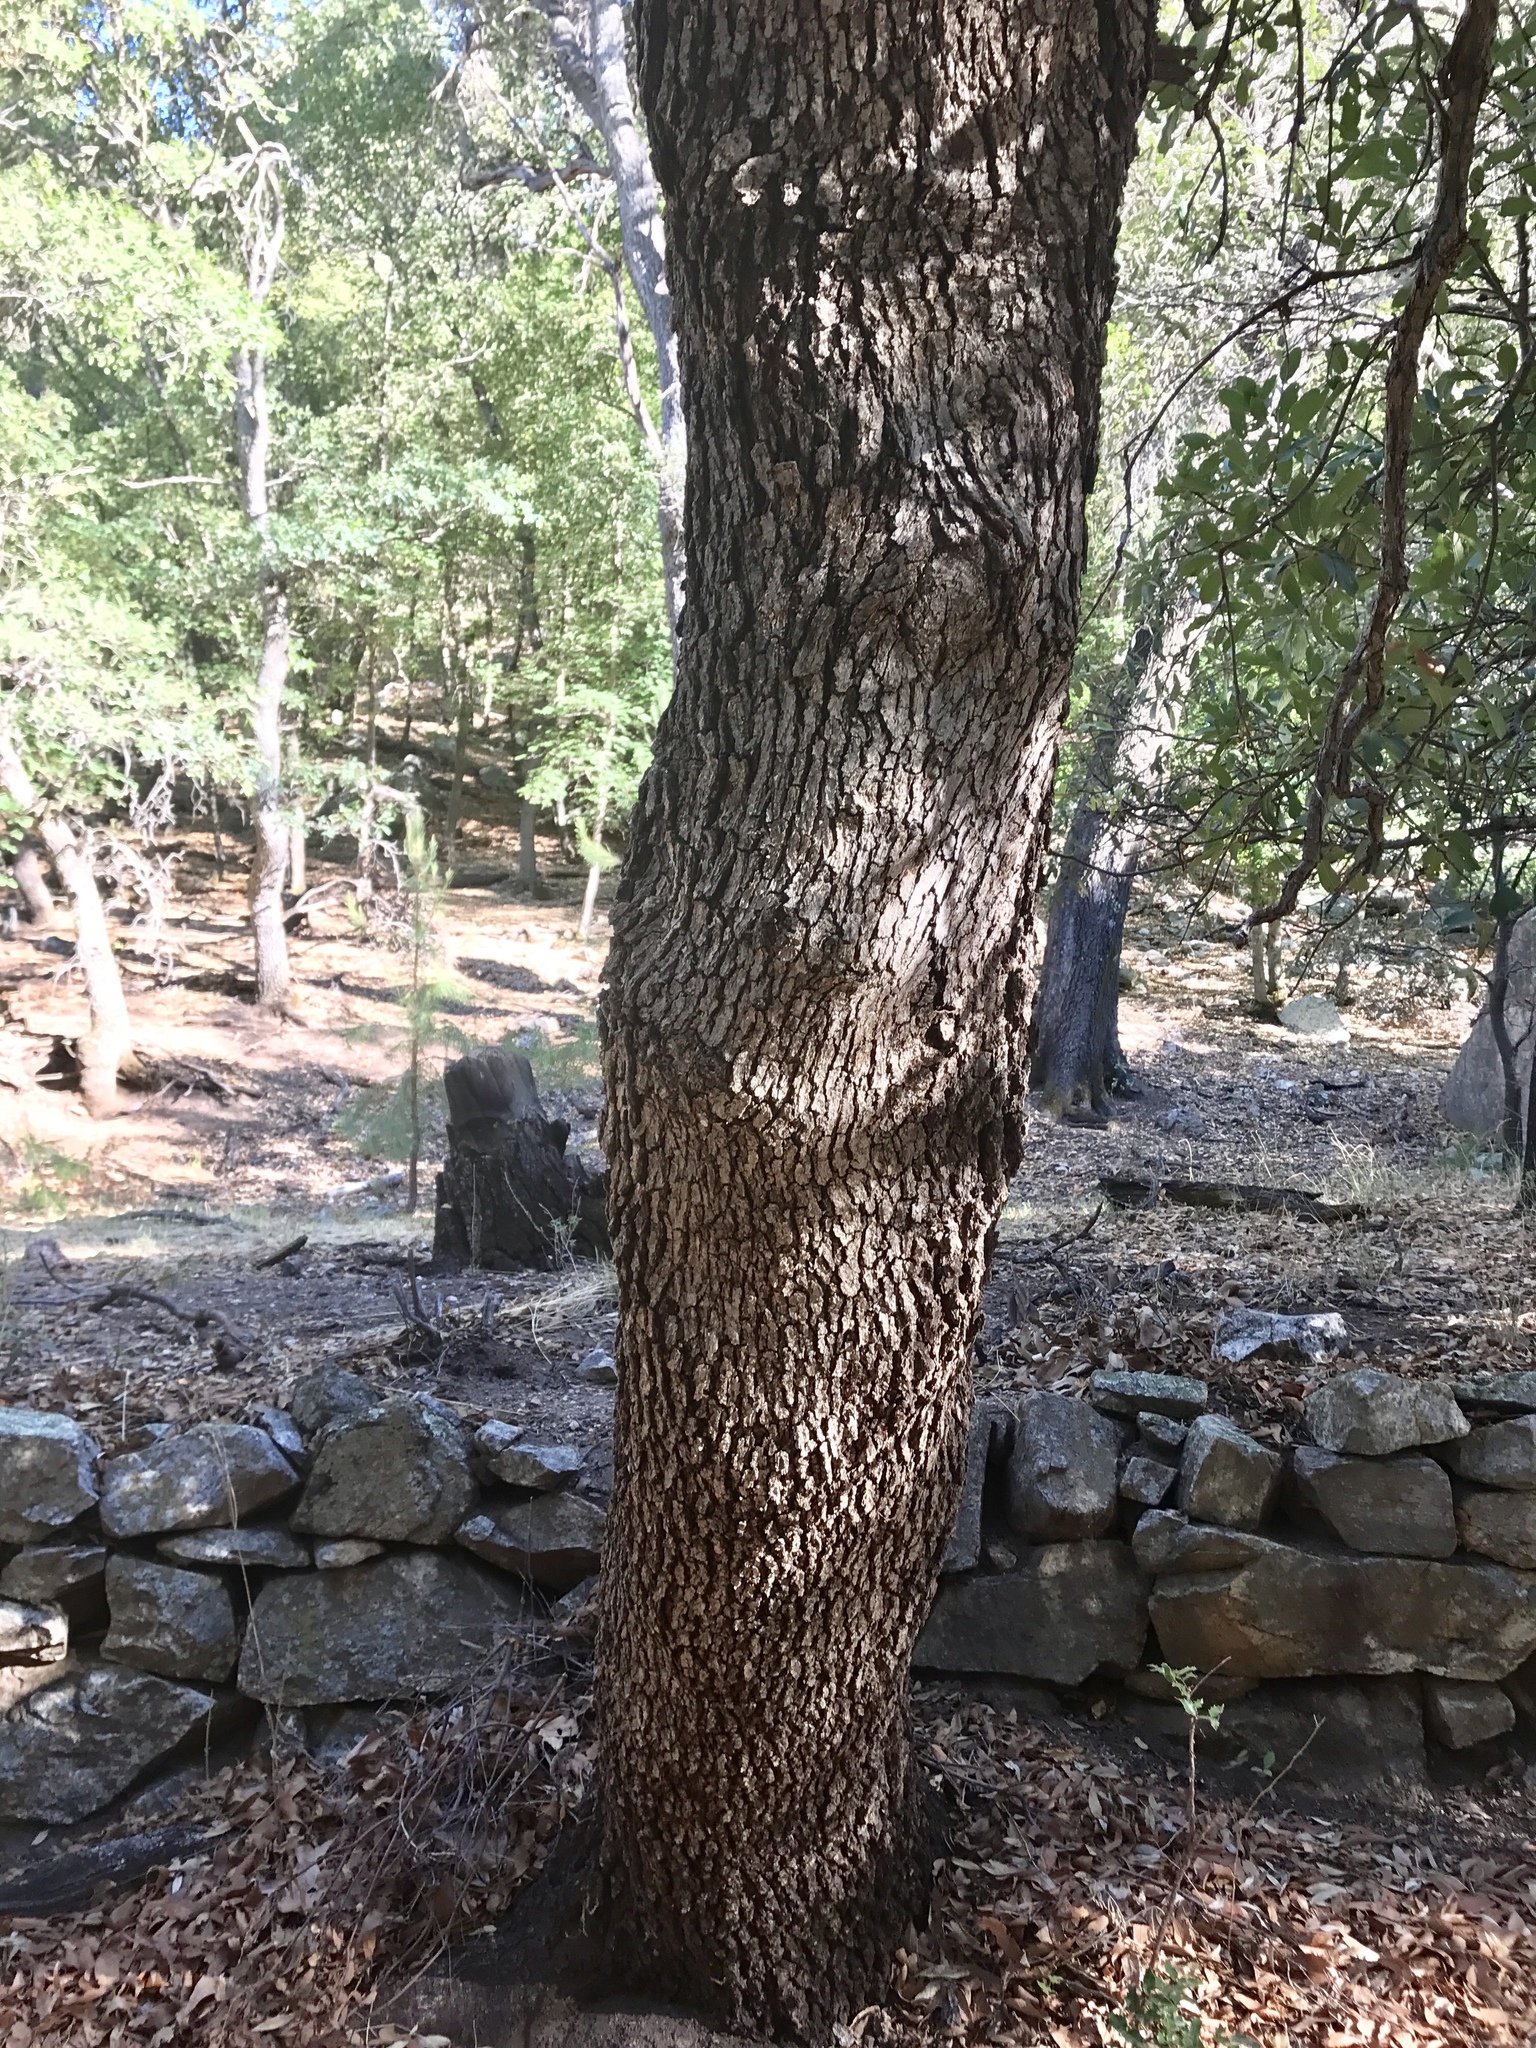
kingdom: Plantae
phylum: Tracheophyta
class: Magnoliopsida
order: Fagales
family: Fagaceae
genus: Quercus
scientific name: Quercus arizonica
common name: Arizona white oak
